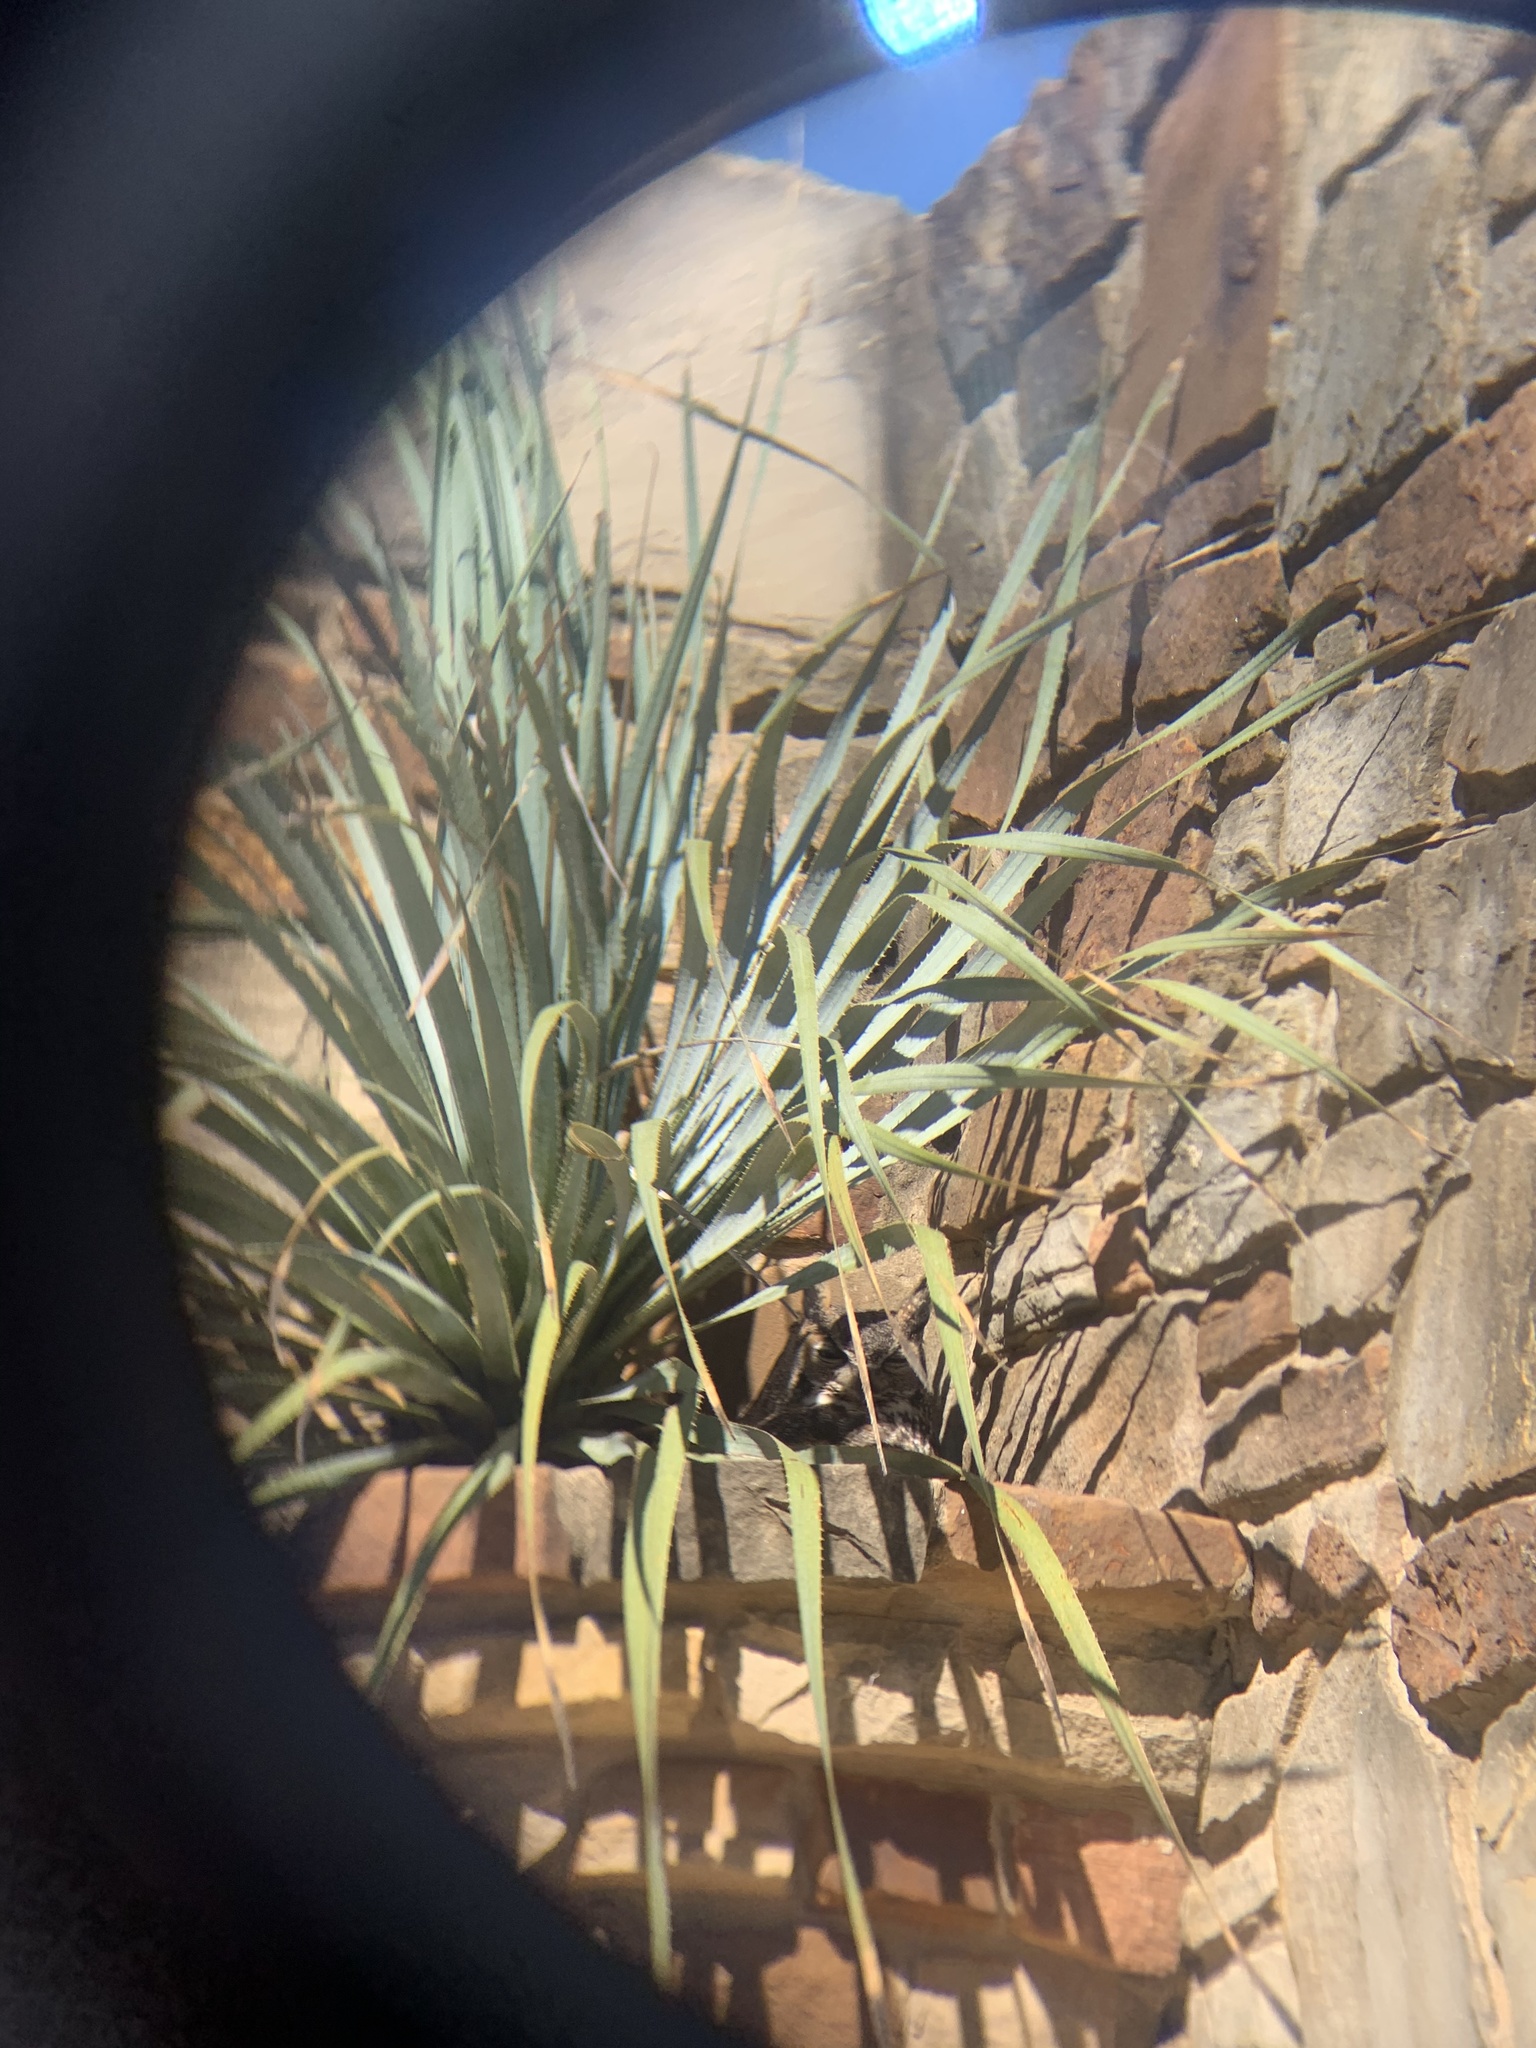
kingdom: Animalia
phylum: Chordata
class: Aves
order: Strigiformes
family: Strigidae
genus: Bubo
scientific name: Bubo virginianus
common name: Great horned owl
